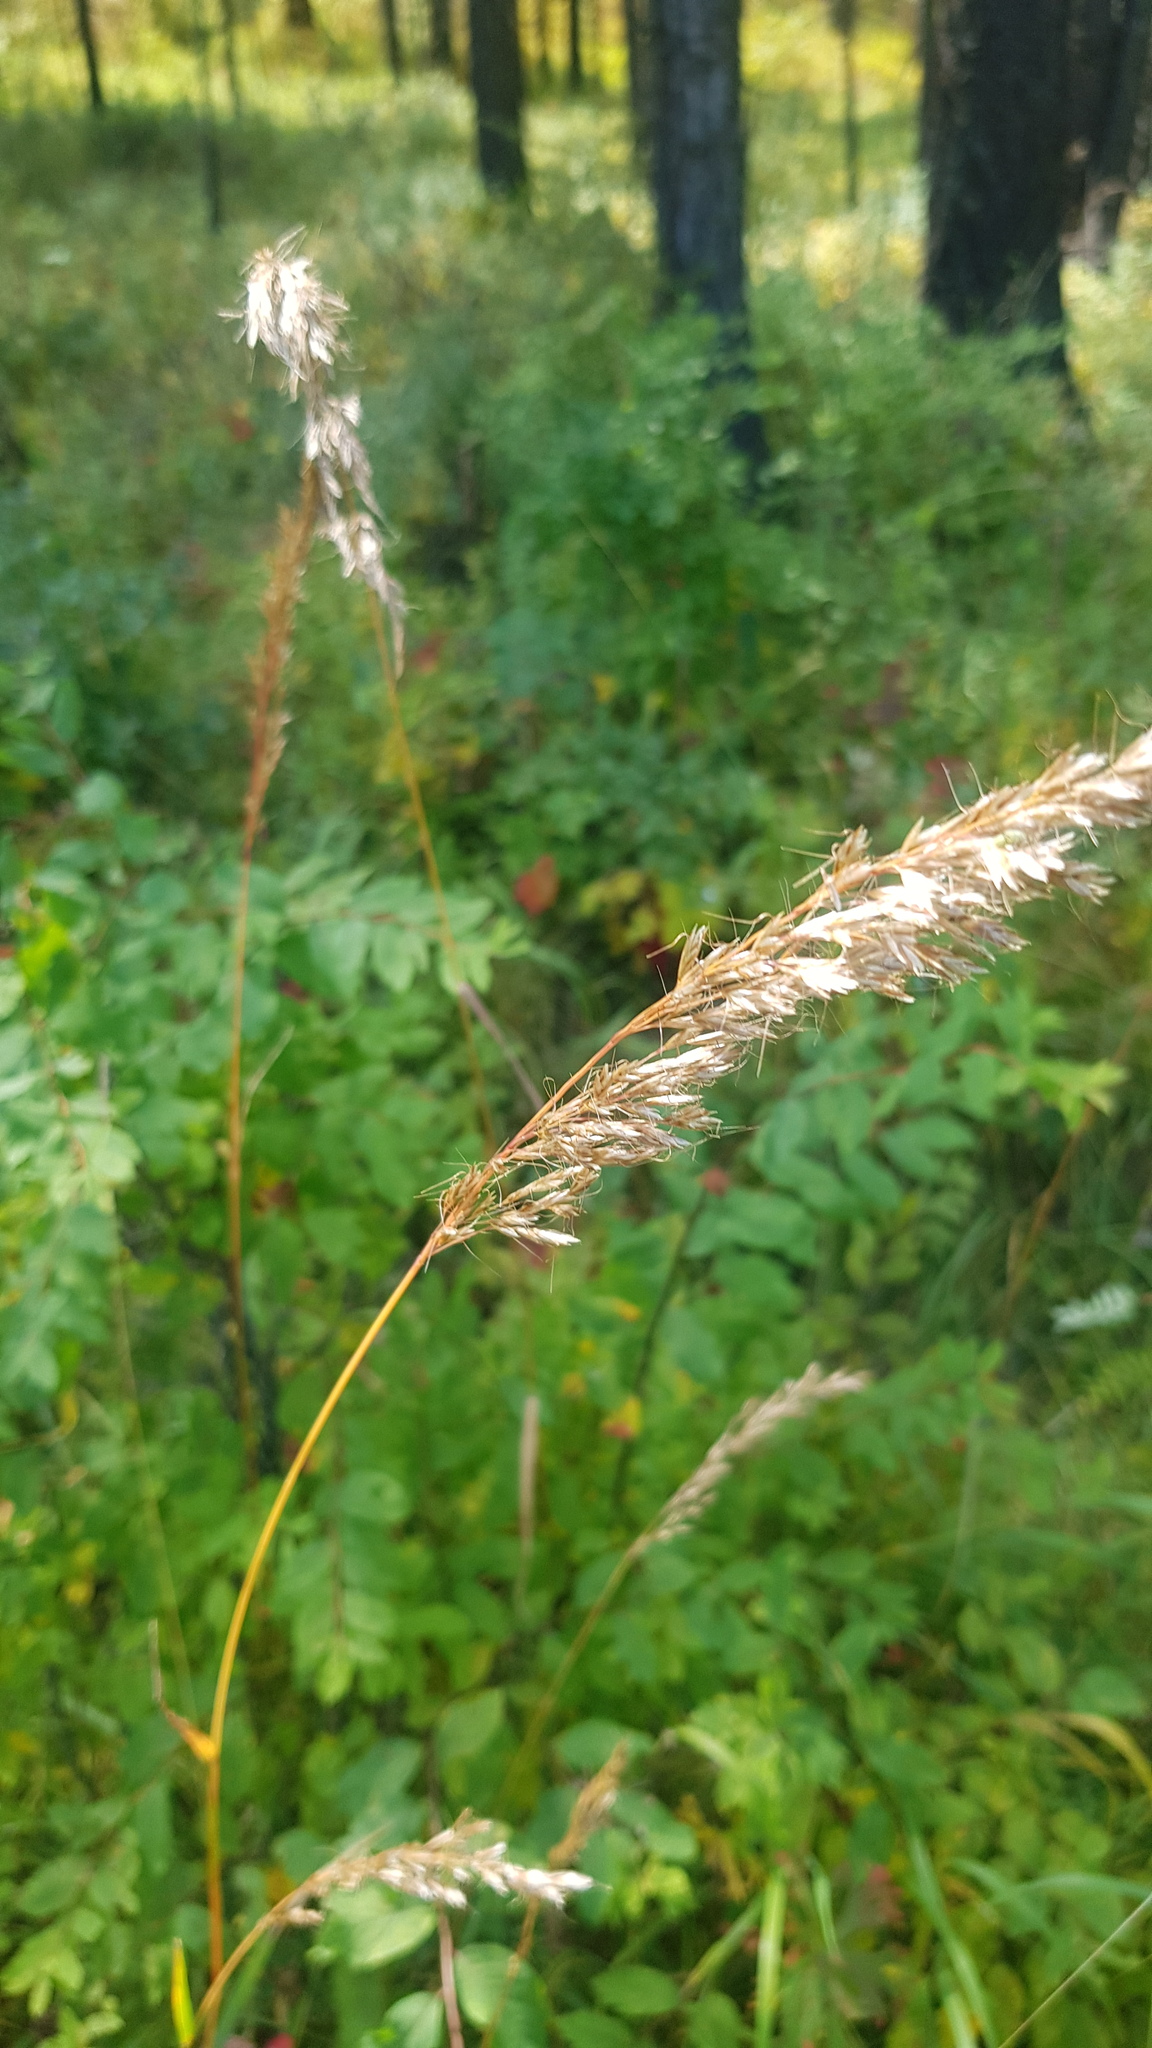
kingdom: Plantae
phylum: Tracheophyta
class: Liliopsida
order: Poales
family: Poaceae
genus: Achnatherum
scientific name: Achnatherum sibiricum
